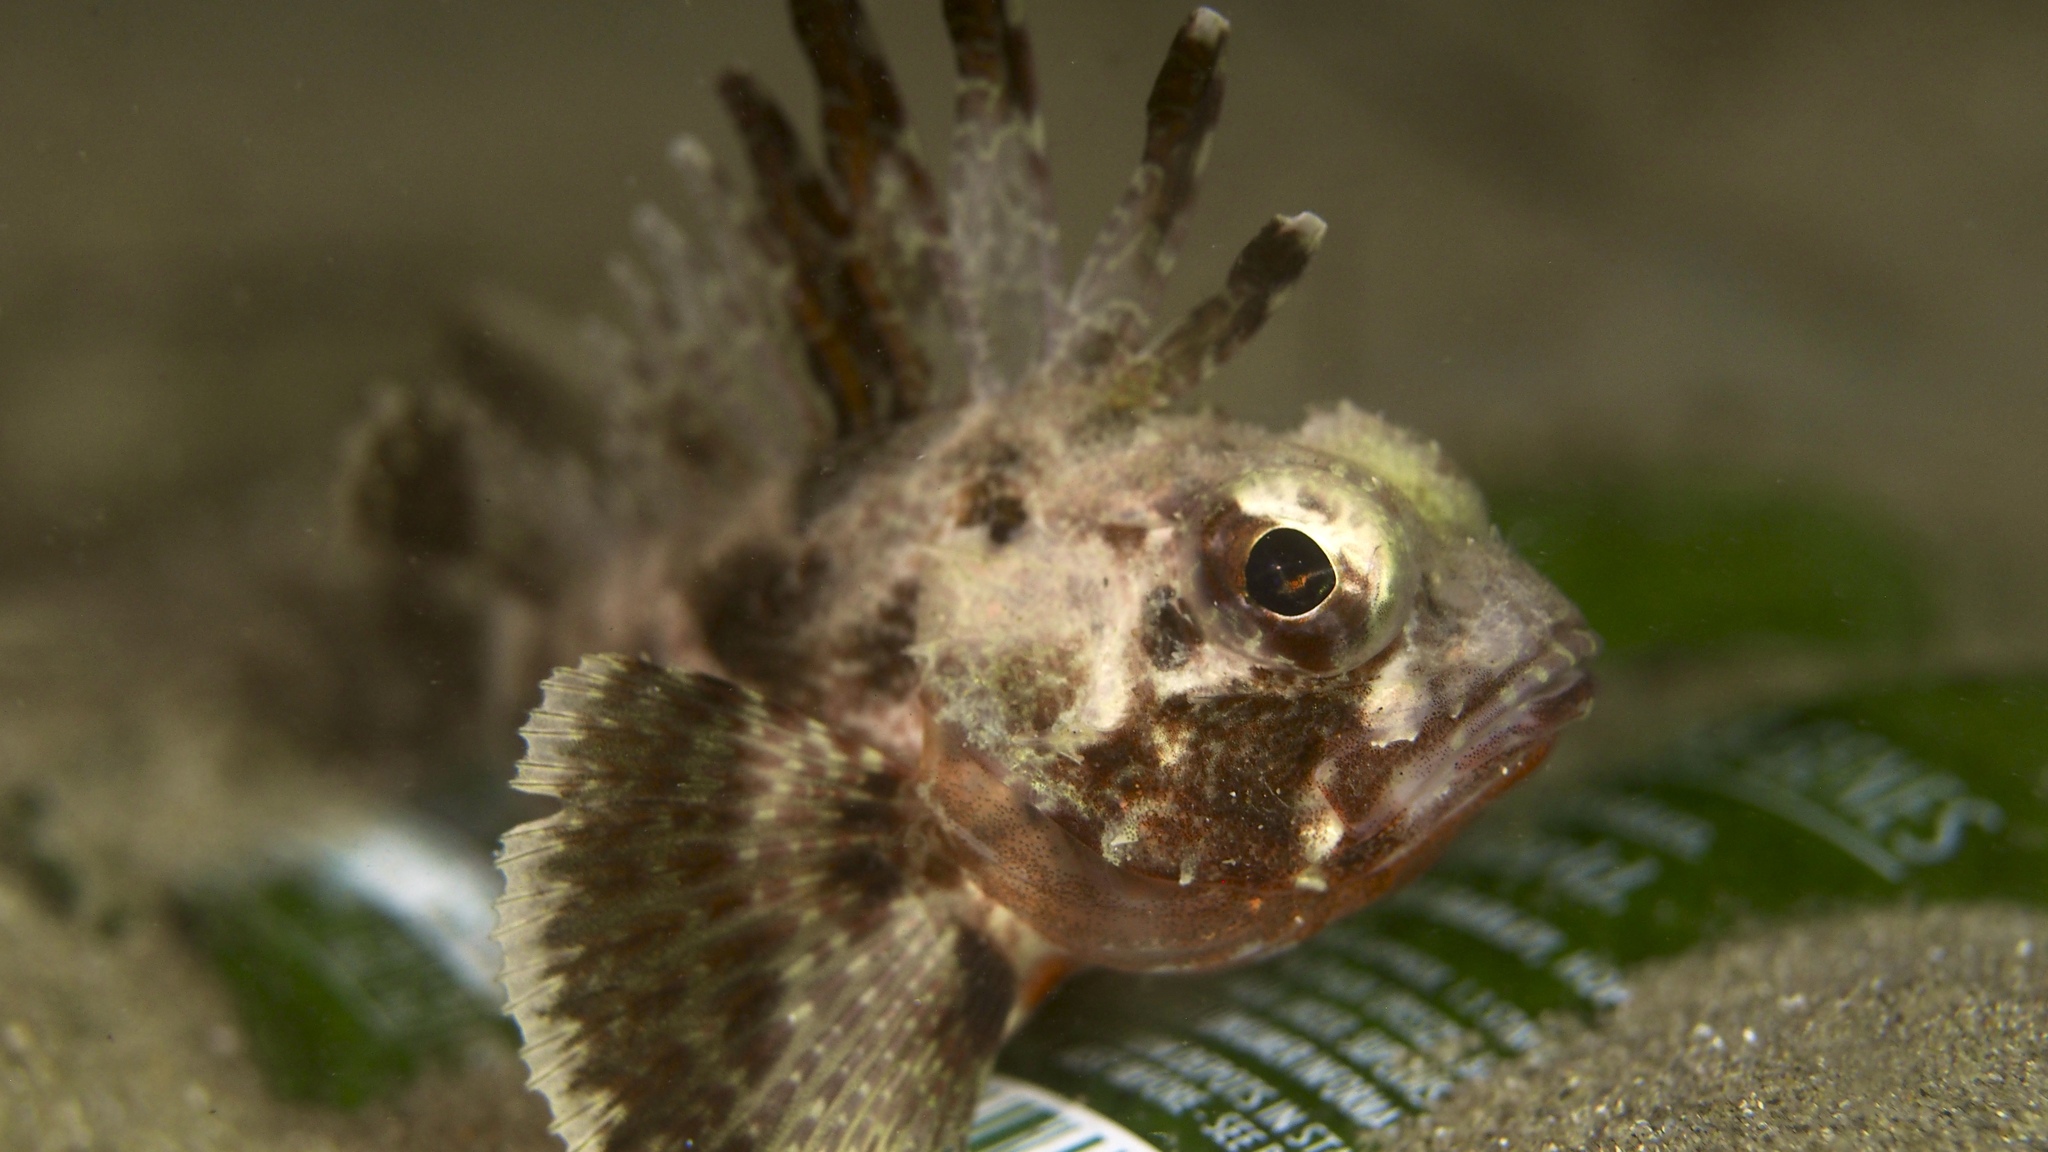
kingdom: Animalia
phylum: Chordata
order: Scorpaeniformes
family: Neosebastidae
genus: Neosebastes
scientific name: Neosebastes scorpaenoides
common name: Cobbler perch
